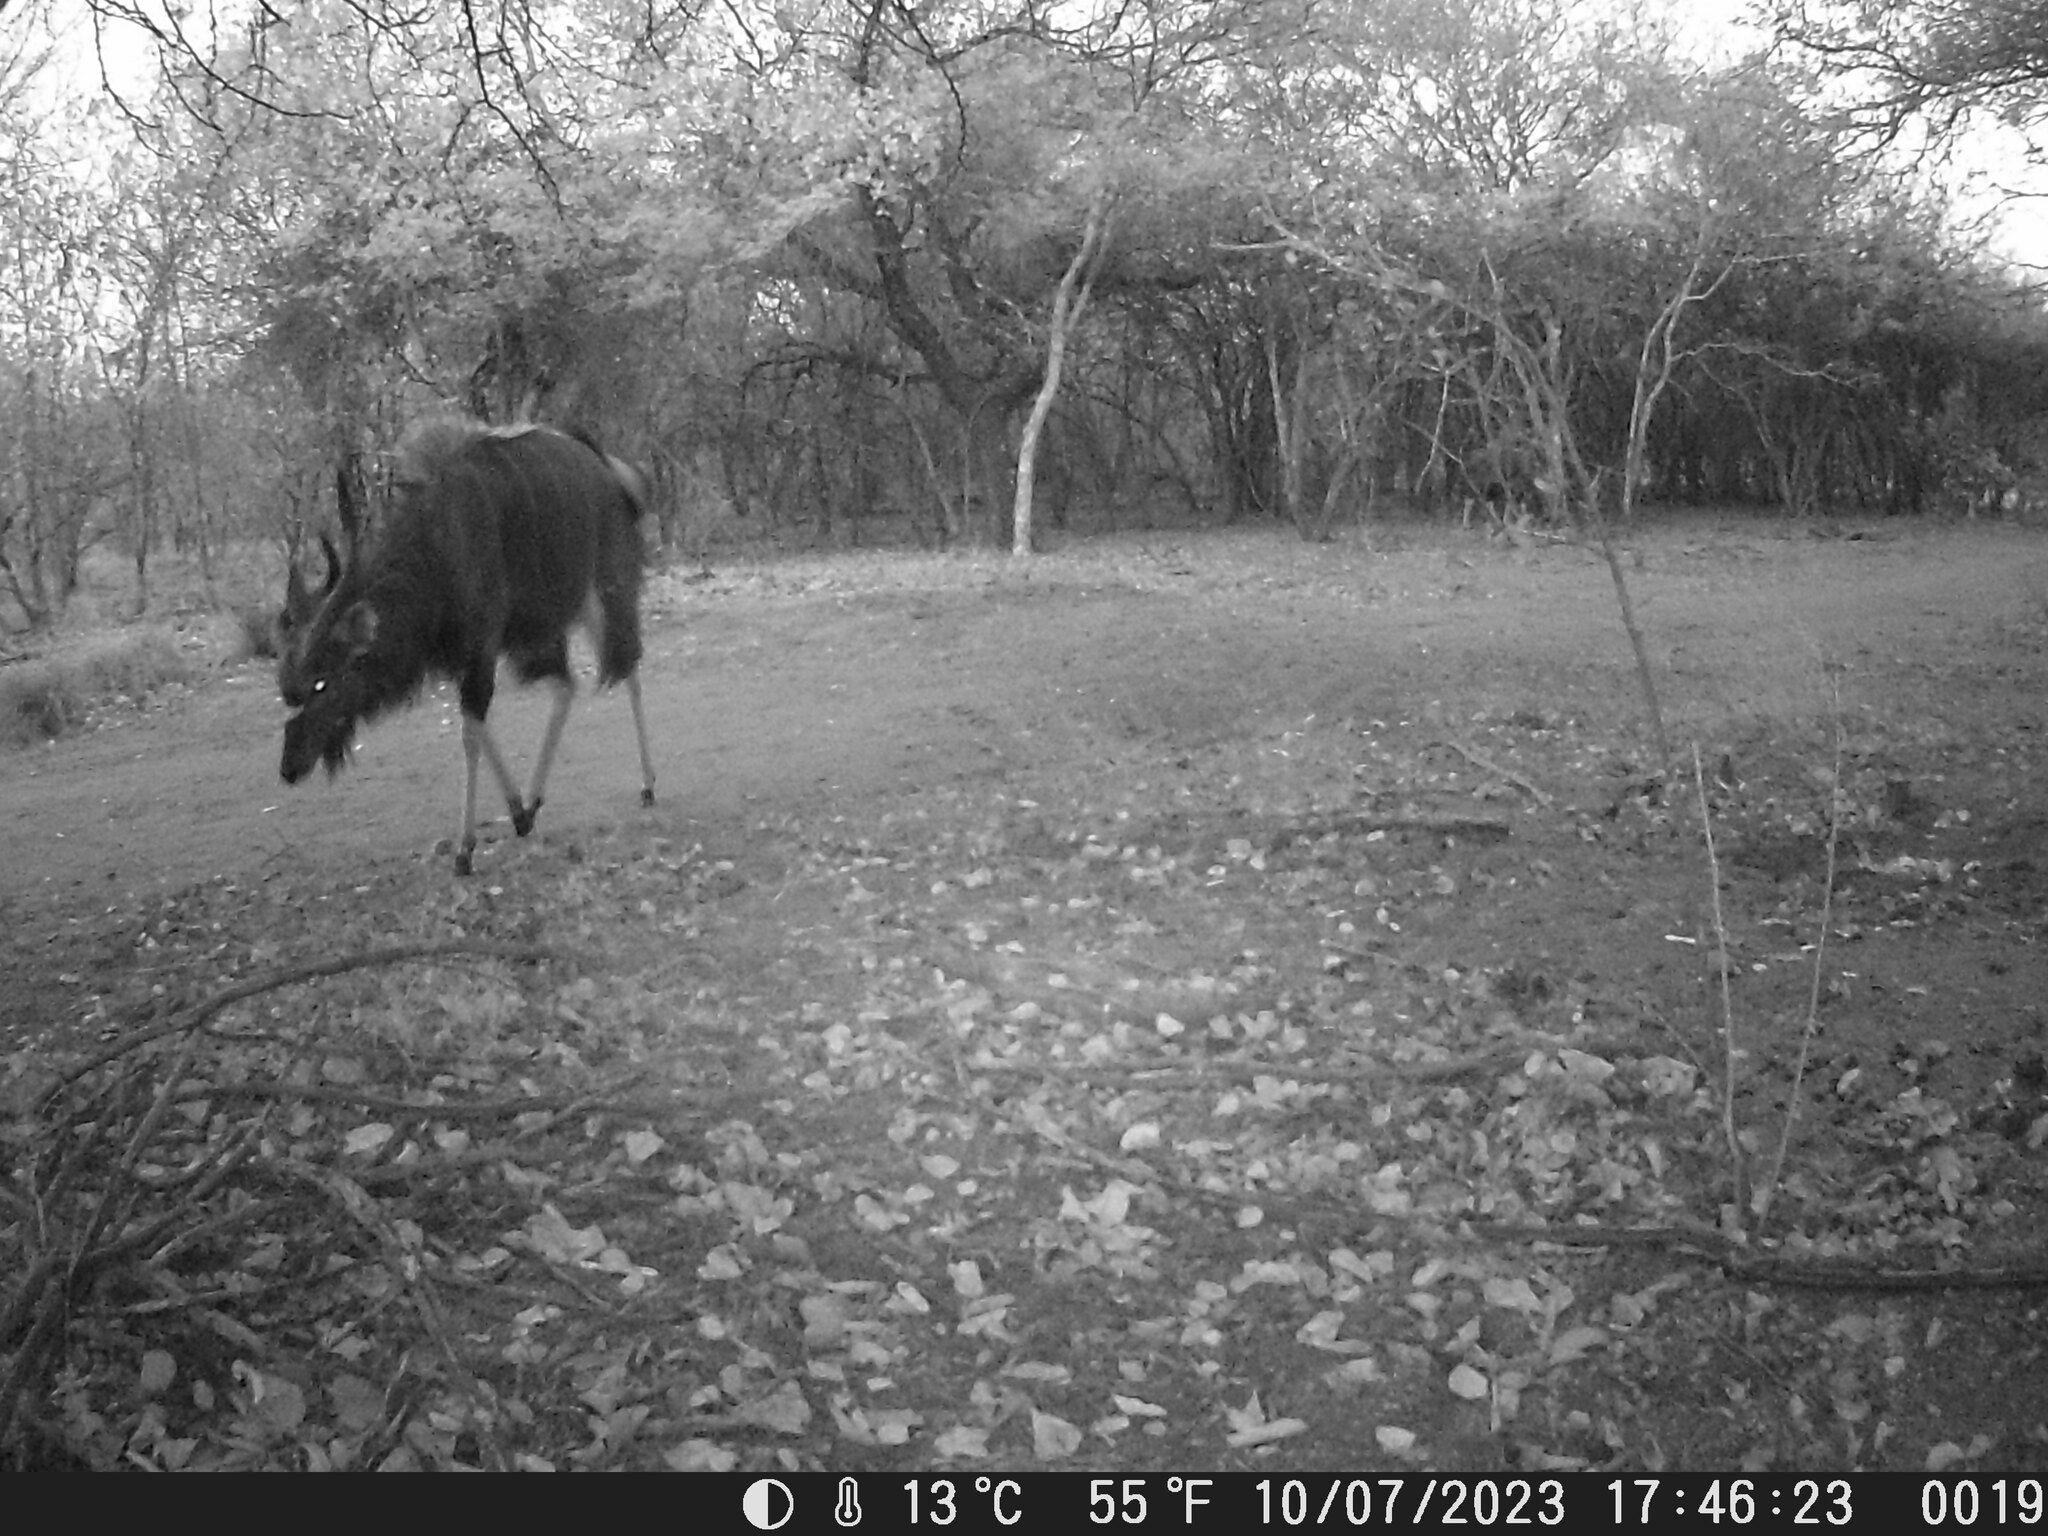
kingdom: Animalia
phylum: Chordata
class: Mammalia
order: Artiodactyla
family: Bovidae
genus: Tragelaphus
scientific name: Tragelaphus angasii
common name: Nyala
